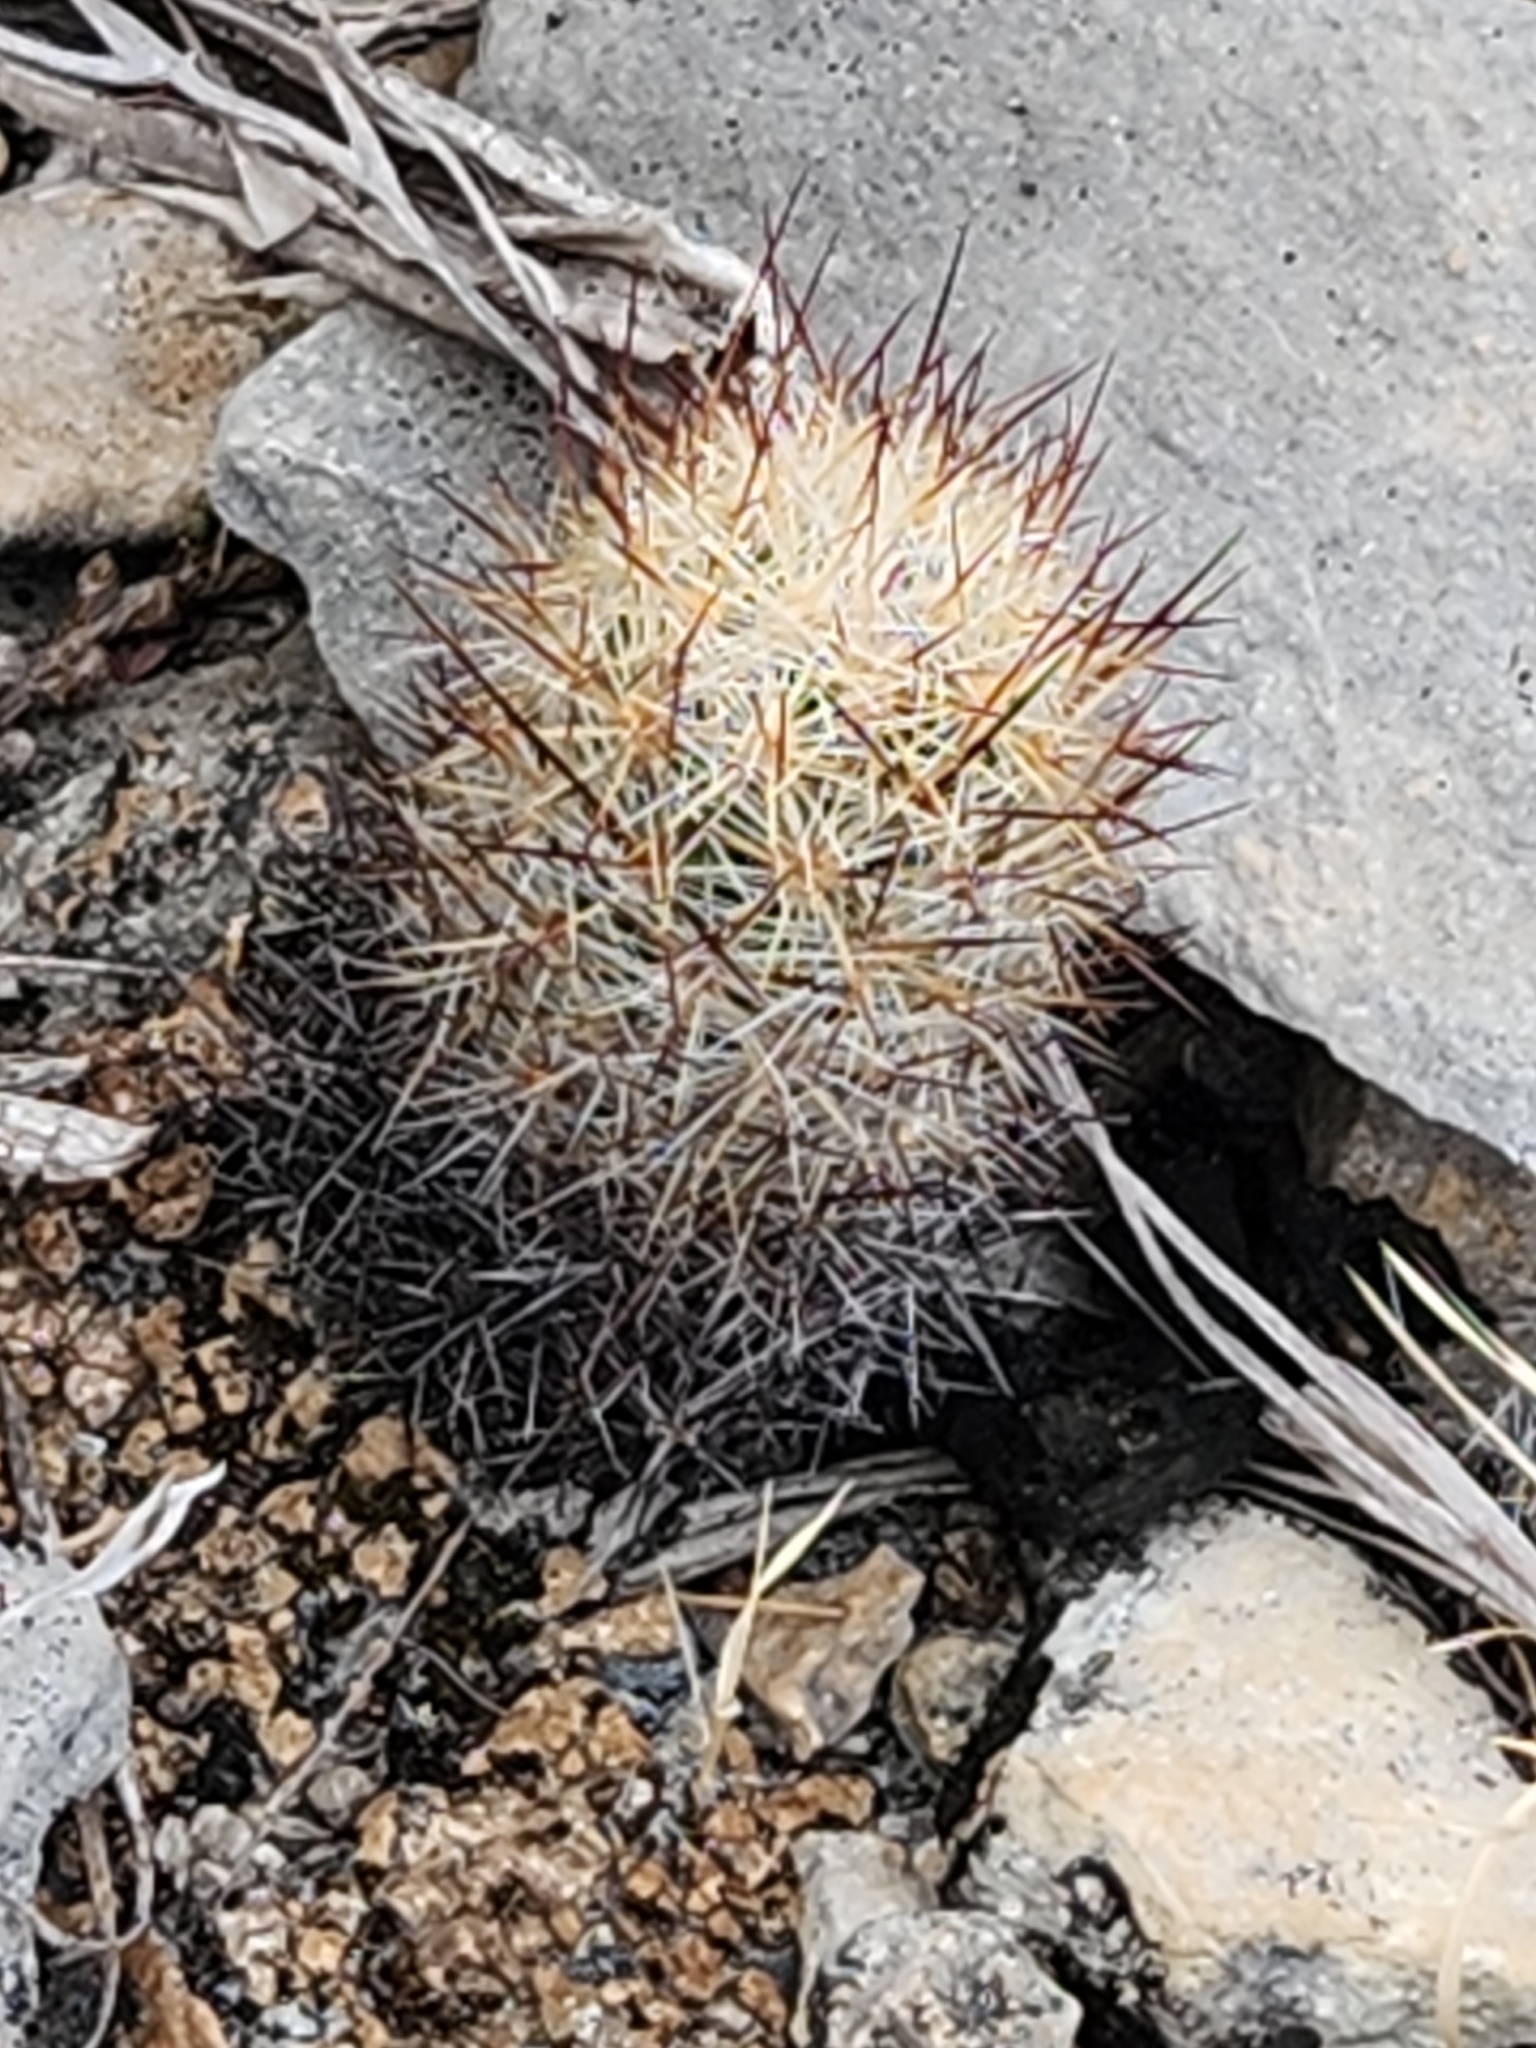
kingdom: Plantae
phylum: Tracheophyta
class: Magnoliopsida
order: Caryophyllales
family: Cactaceae
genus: Pelecyphora
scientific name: Pelecyphora emskoetteriana
